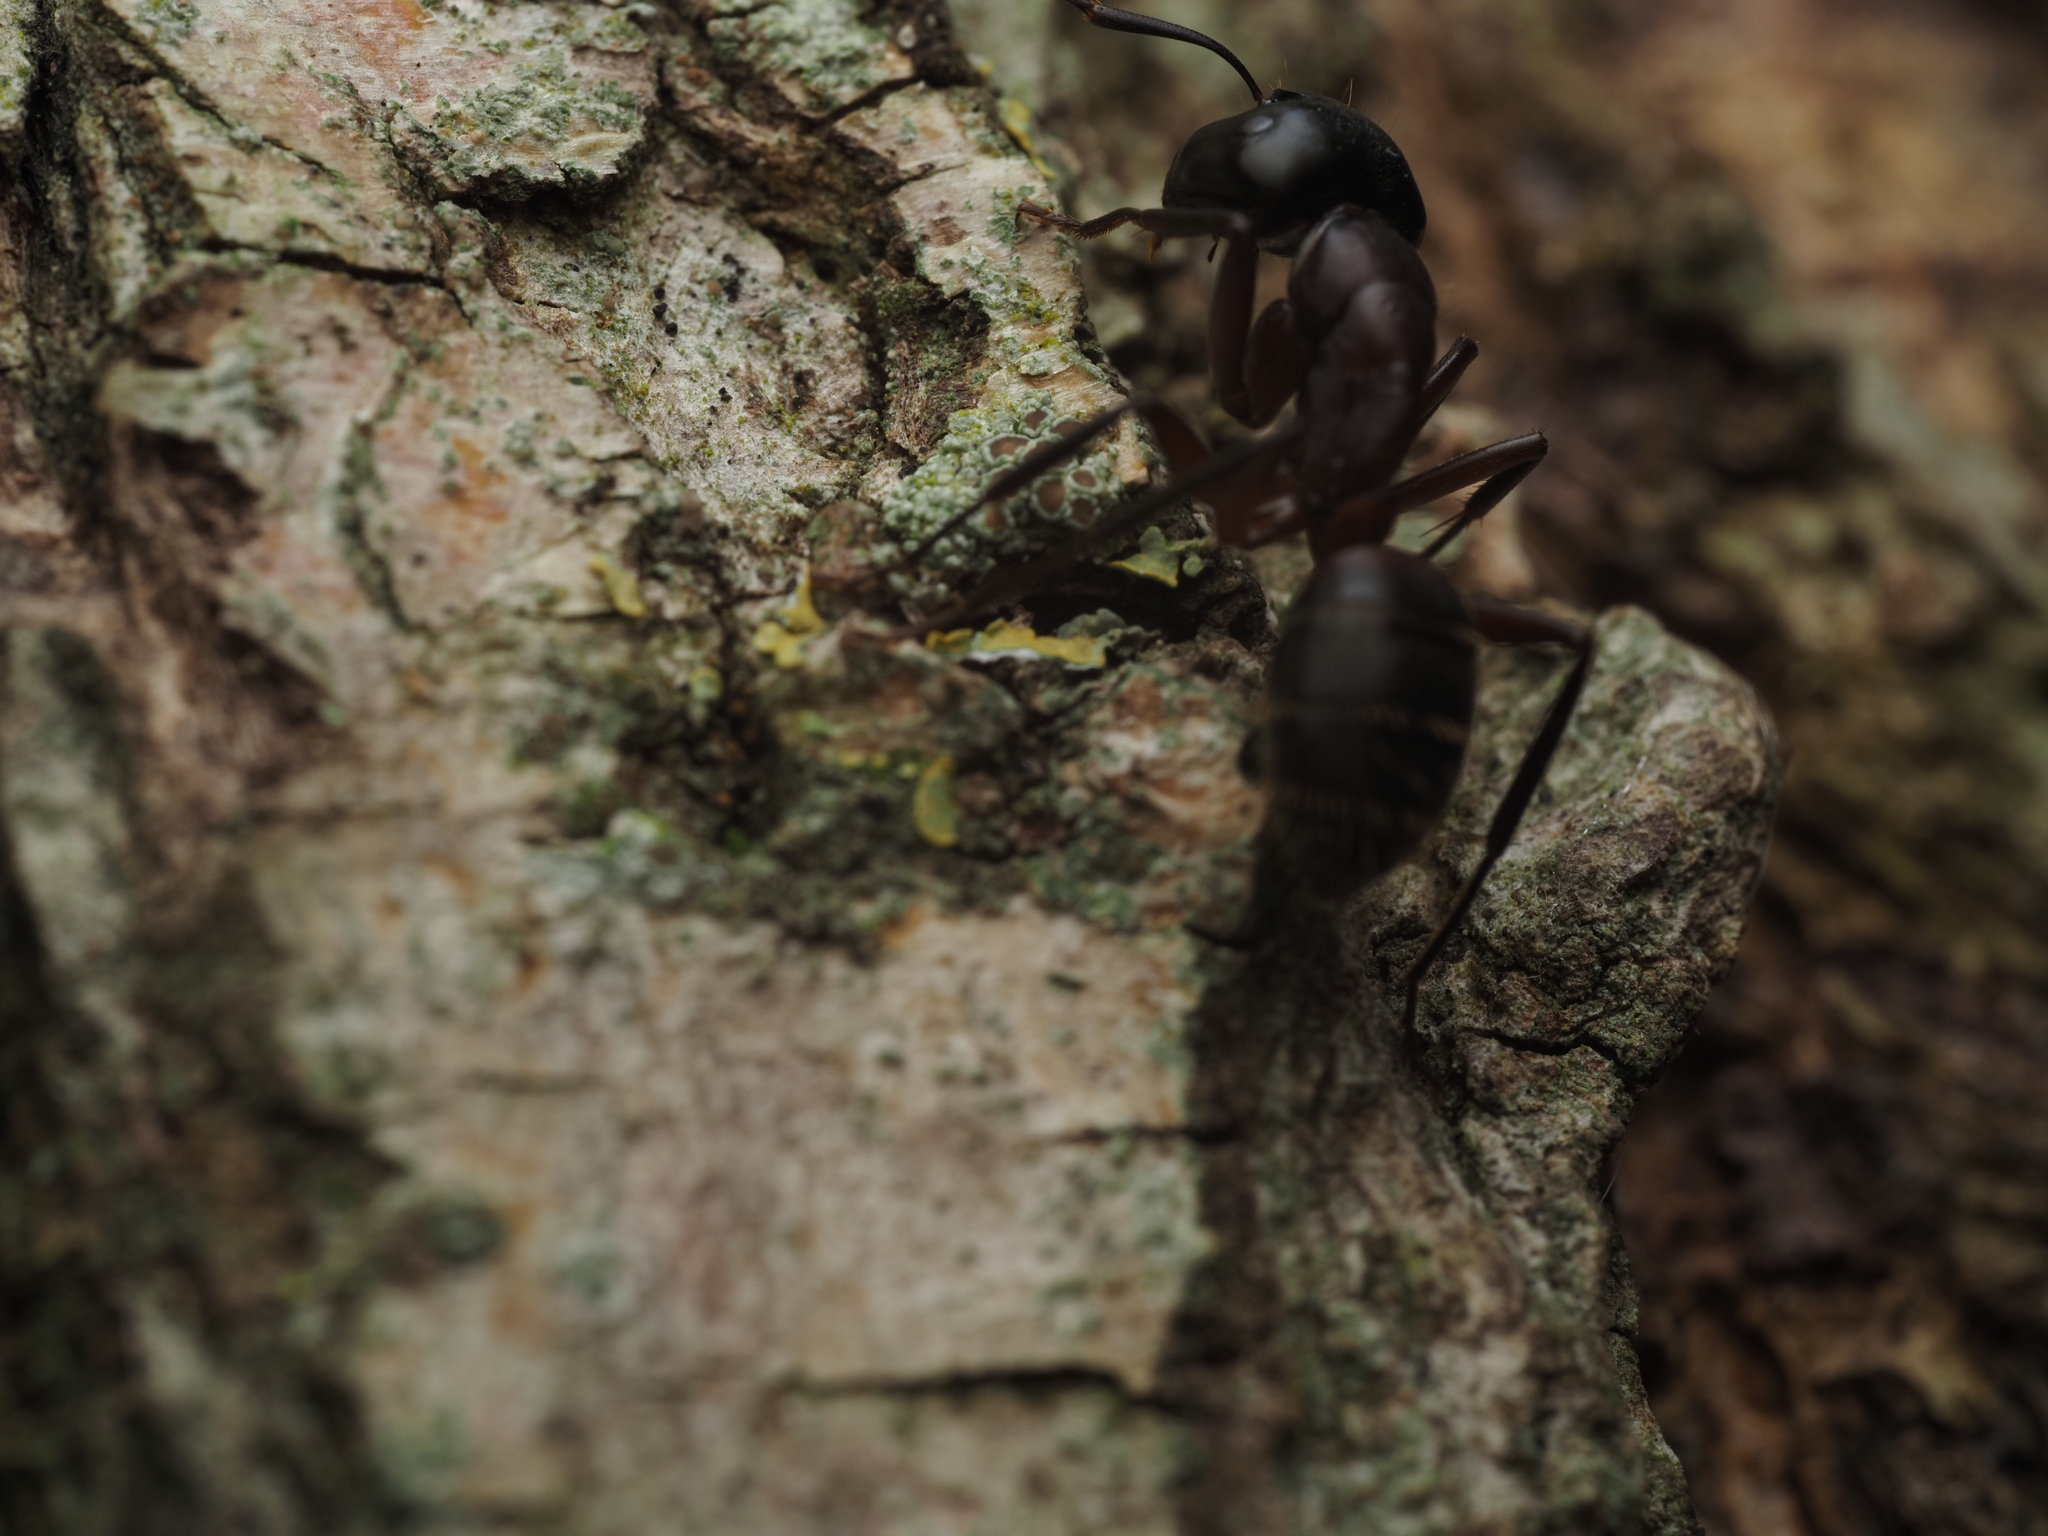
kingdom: Animalia
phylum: Arthropoda
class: Insecta
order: Hymenoptera
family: Formicidae
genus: Camponotus
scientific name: Camponotus ligniperdus
